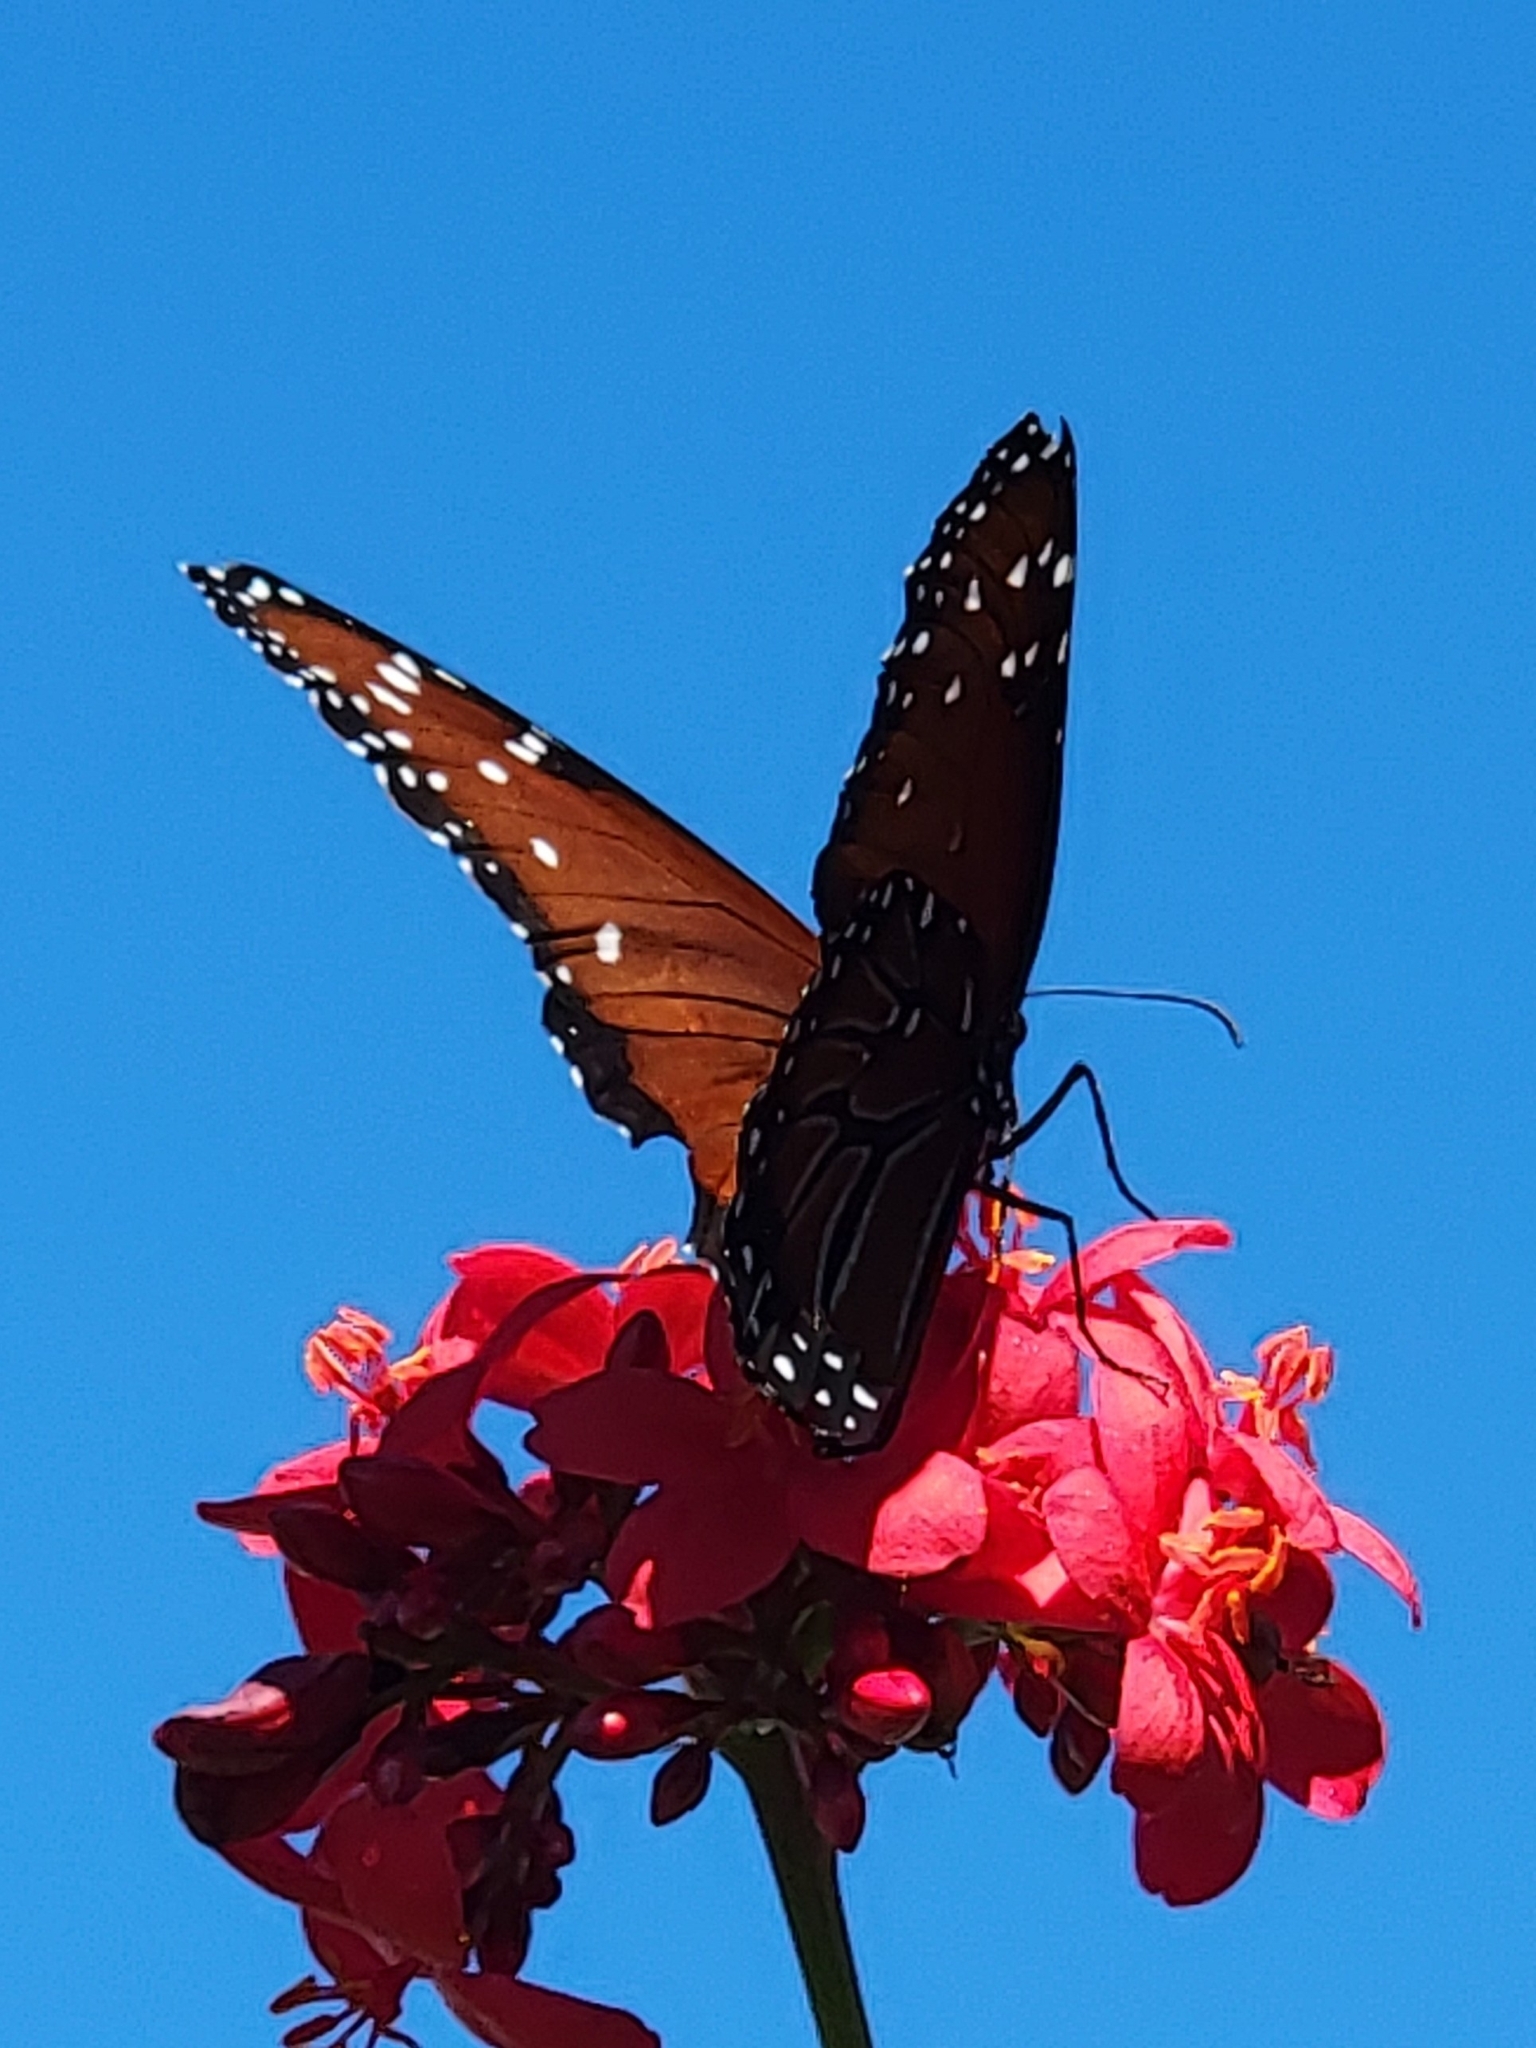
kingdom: Animalia
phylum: Arthropoda
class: Insecta
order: Lepidoptera
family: Nymphalidae
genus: Danaus
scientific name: Danaus gilippus
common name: Queen
